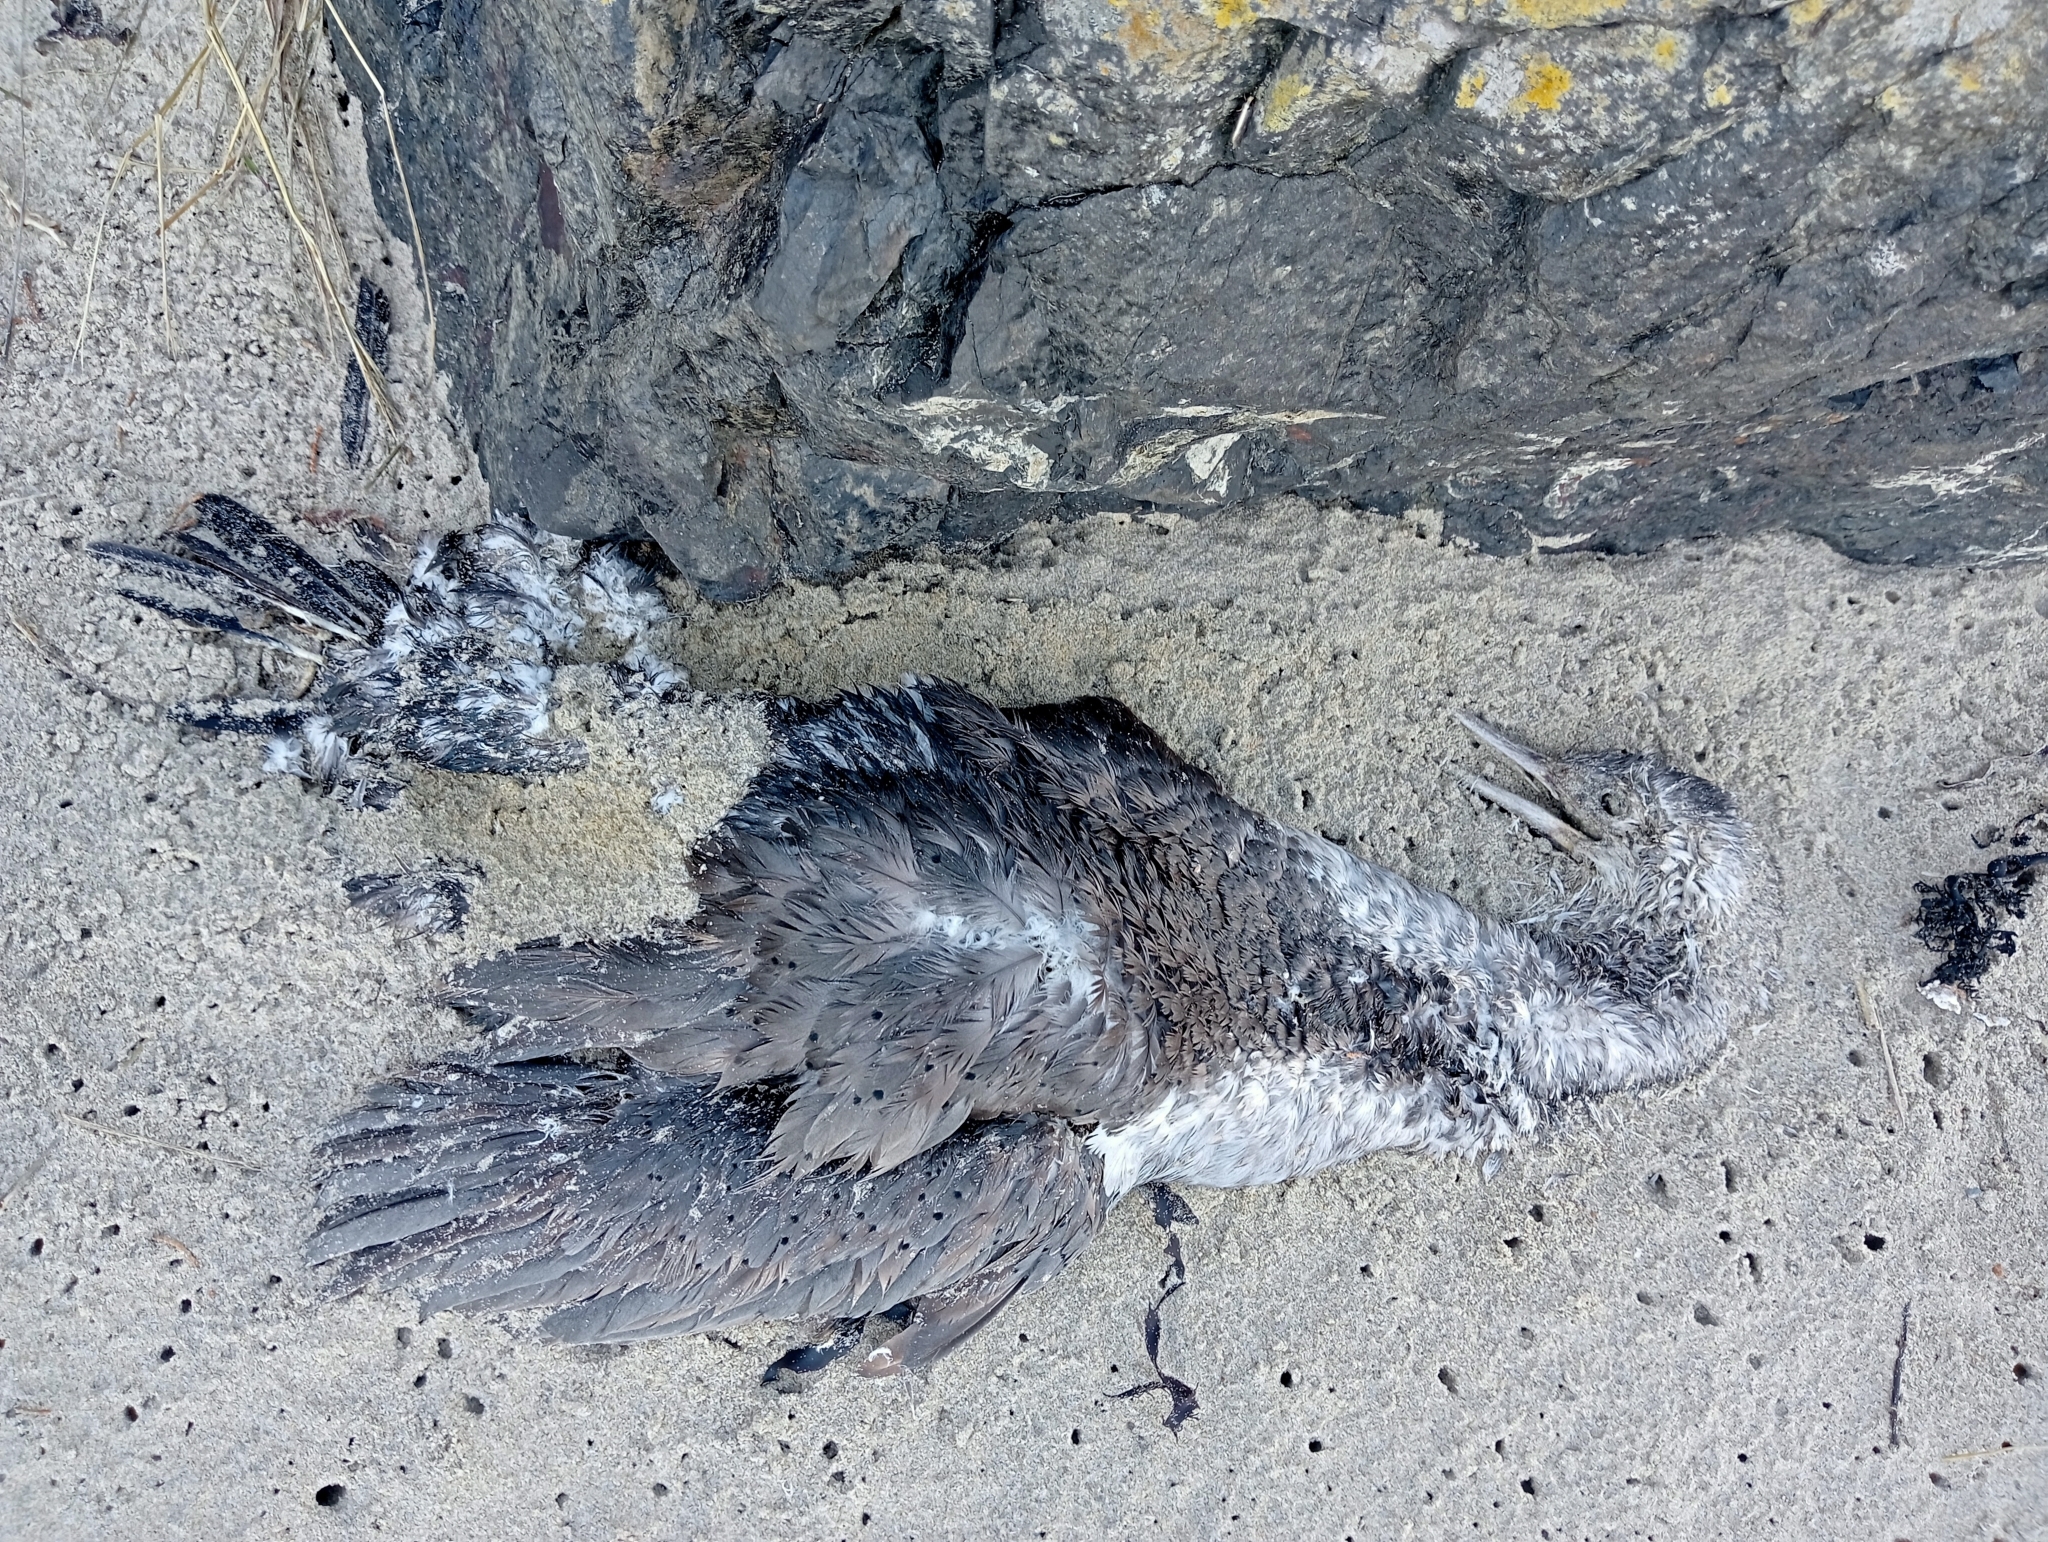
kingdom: Animalia
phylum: Chordata
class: Aves
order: Suliformes
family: Phalacrocoracidae
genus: Phalacrocorax
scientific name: Phalacrocorax punctatus
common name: Spotted shag
